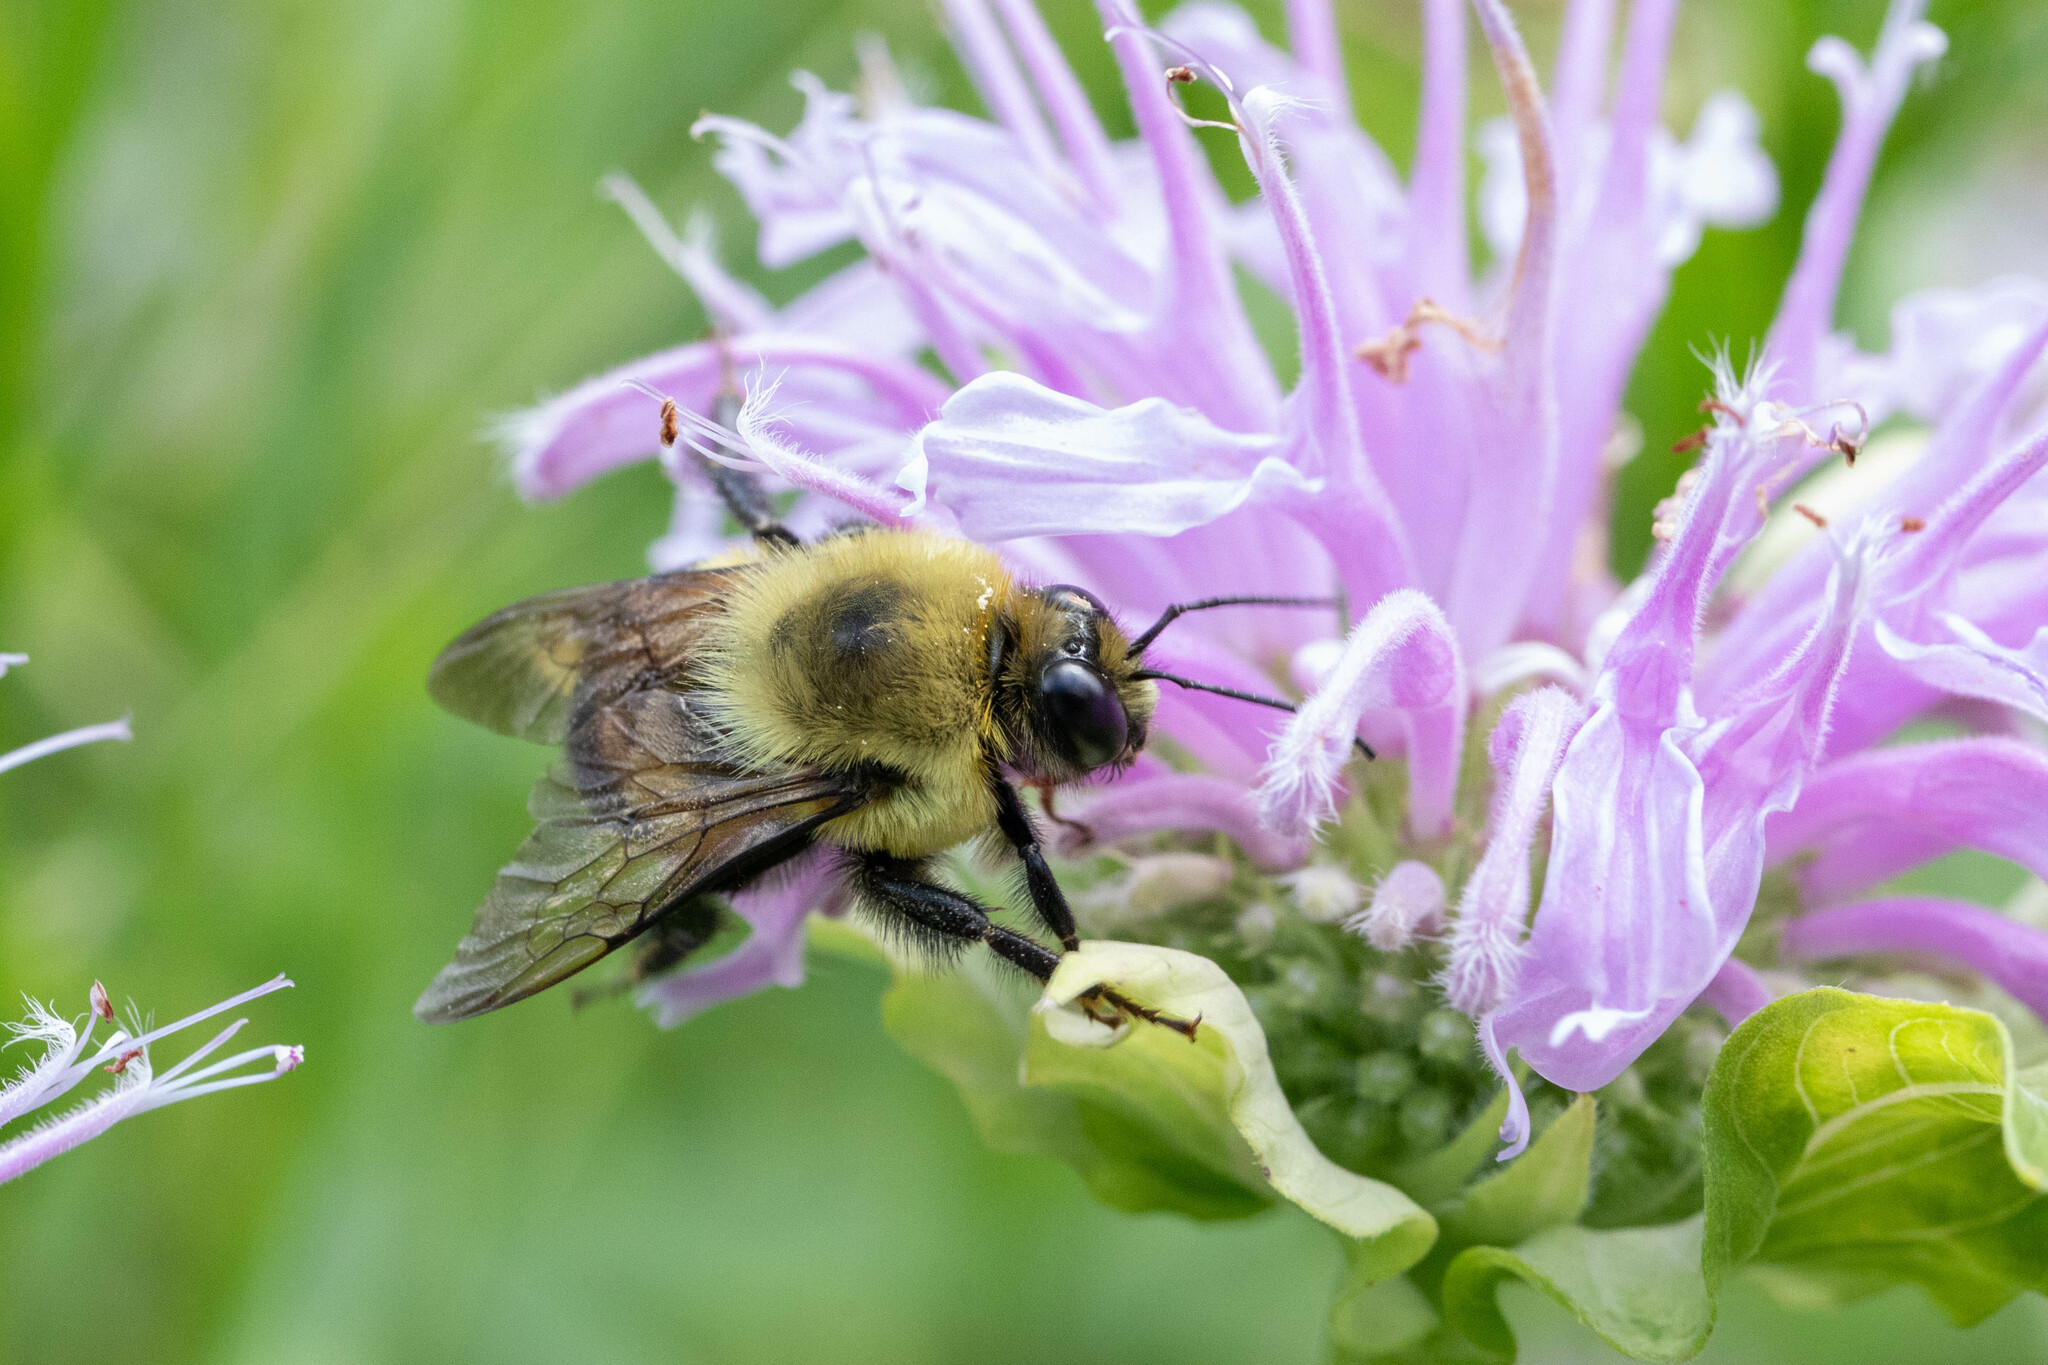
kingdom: Animalia
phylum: Arthropoda
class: Insecta
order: Hymenoptera
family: Apidae
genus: Bombus
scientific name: Bombus griseocollis
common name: Brown-belted bumble bee
